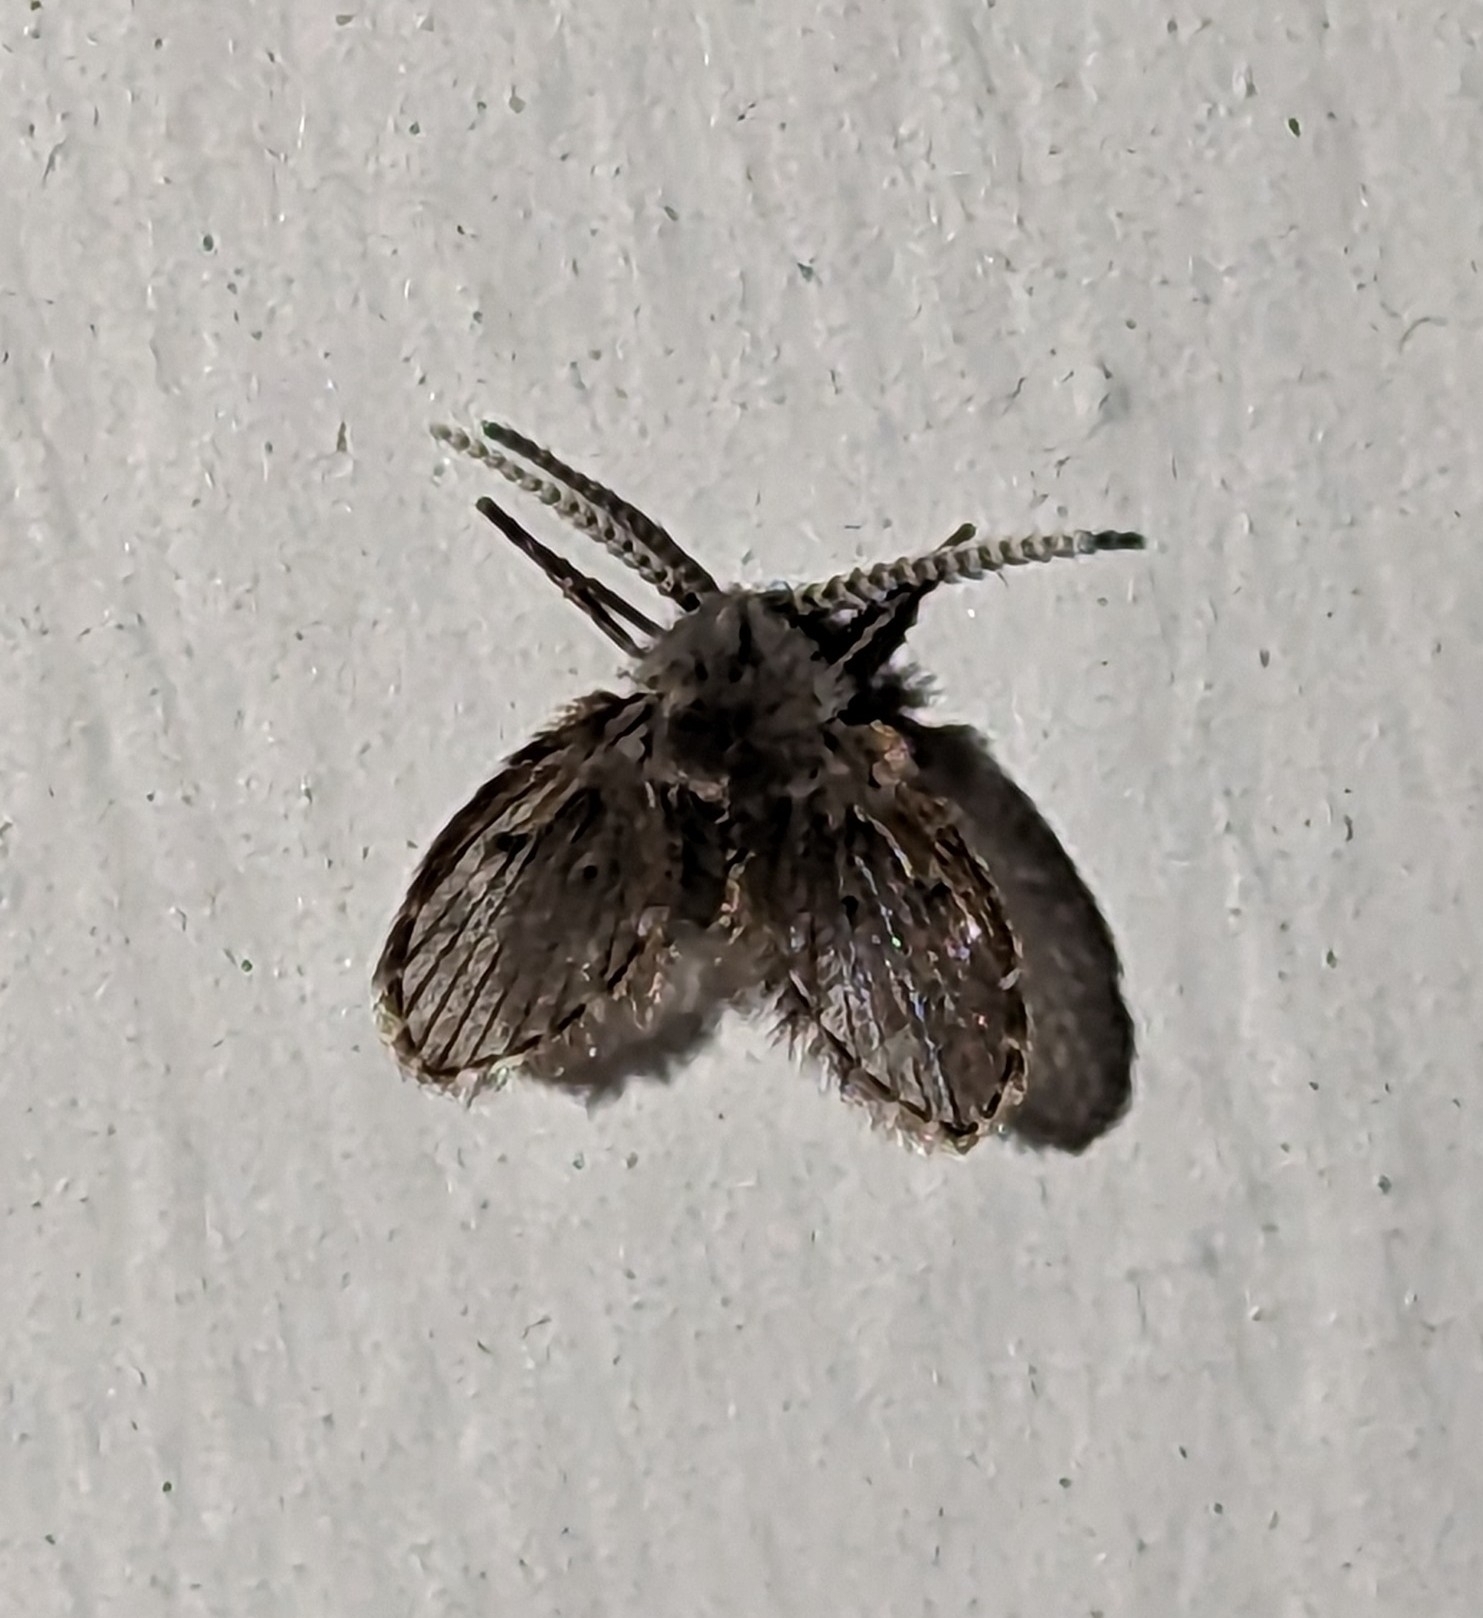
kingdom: Animalia
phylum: Arthropoda
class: Insecta
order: Diptera
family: Psychodidae
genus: Clogmia
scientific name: Clogmia albipunctatus
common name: White-spotted moth fly
